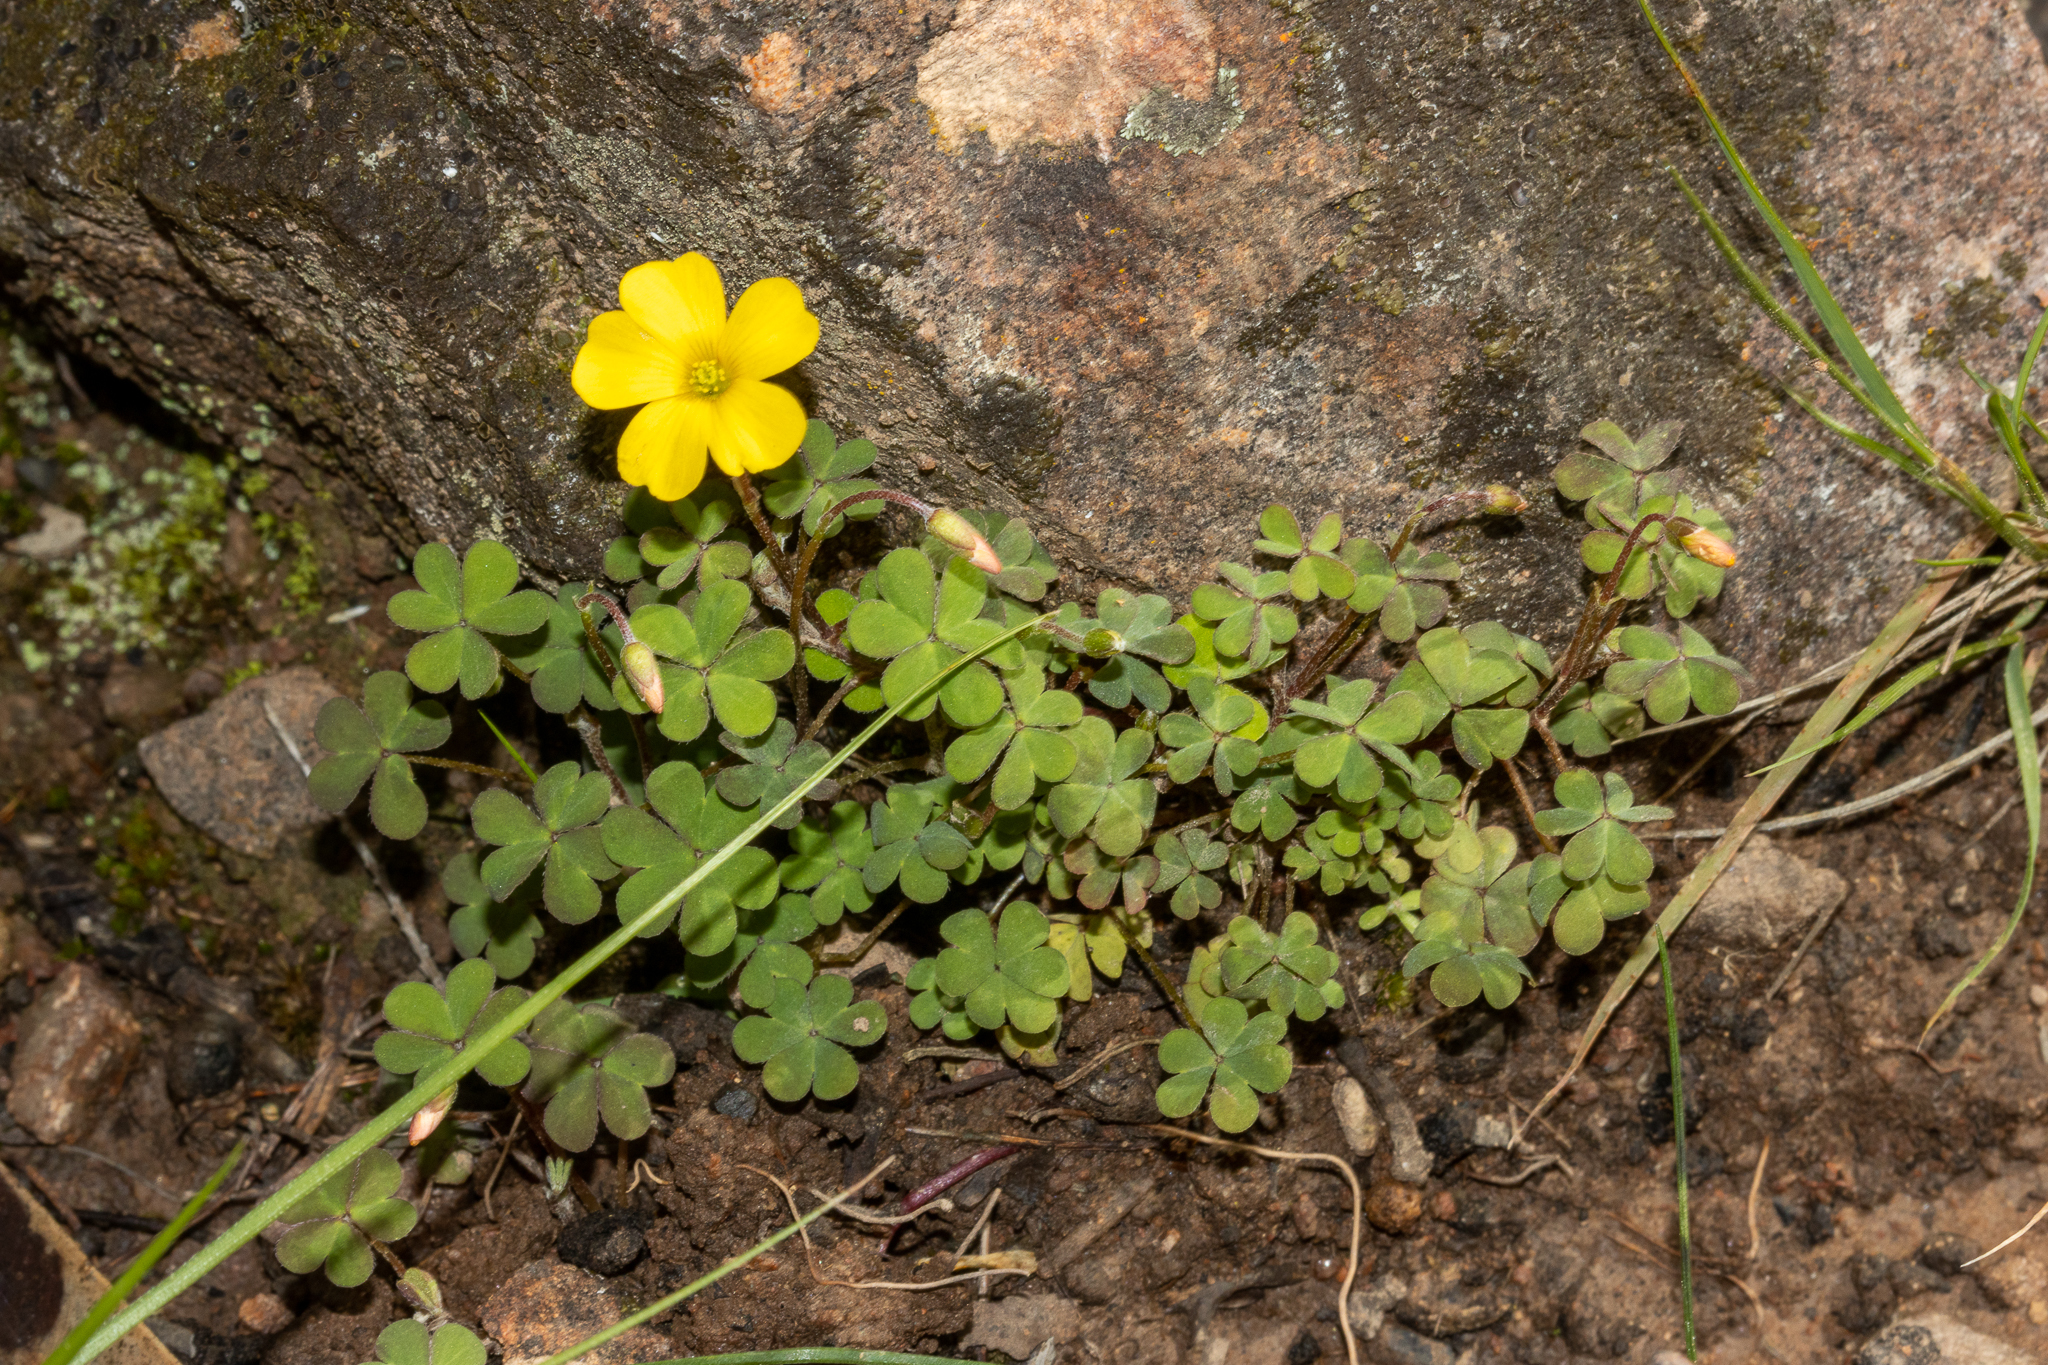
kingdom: Plantae
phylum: Tracheophyta
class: Magnoliopsida
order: Oxalidales
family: Oxalidaceae
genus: Oxalis
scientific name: Oxalis perennans
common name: Woody-rooted yellow-sorrel
